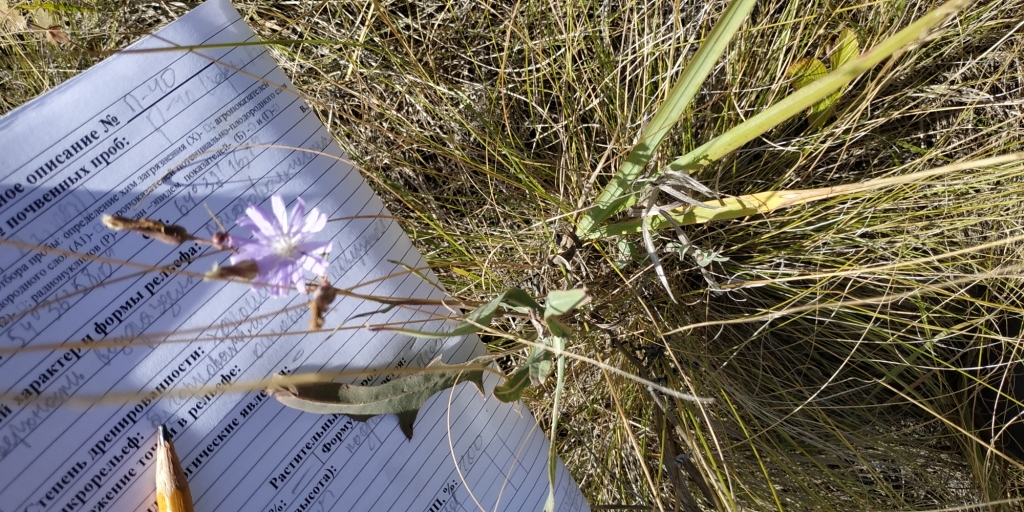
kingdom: Plantae
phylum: Tracheophyta
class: Magnoliopsida
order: Asterales
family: Asteraceae
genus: Lactuca
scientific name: Lactuca tatarica
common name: Blue lettuce
